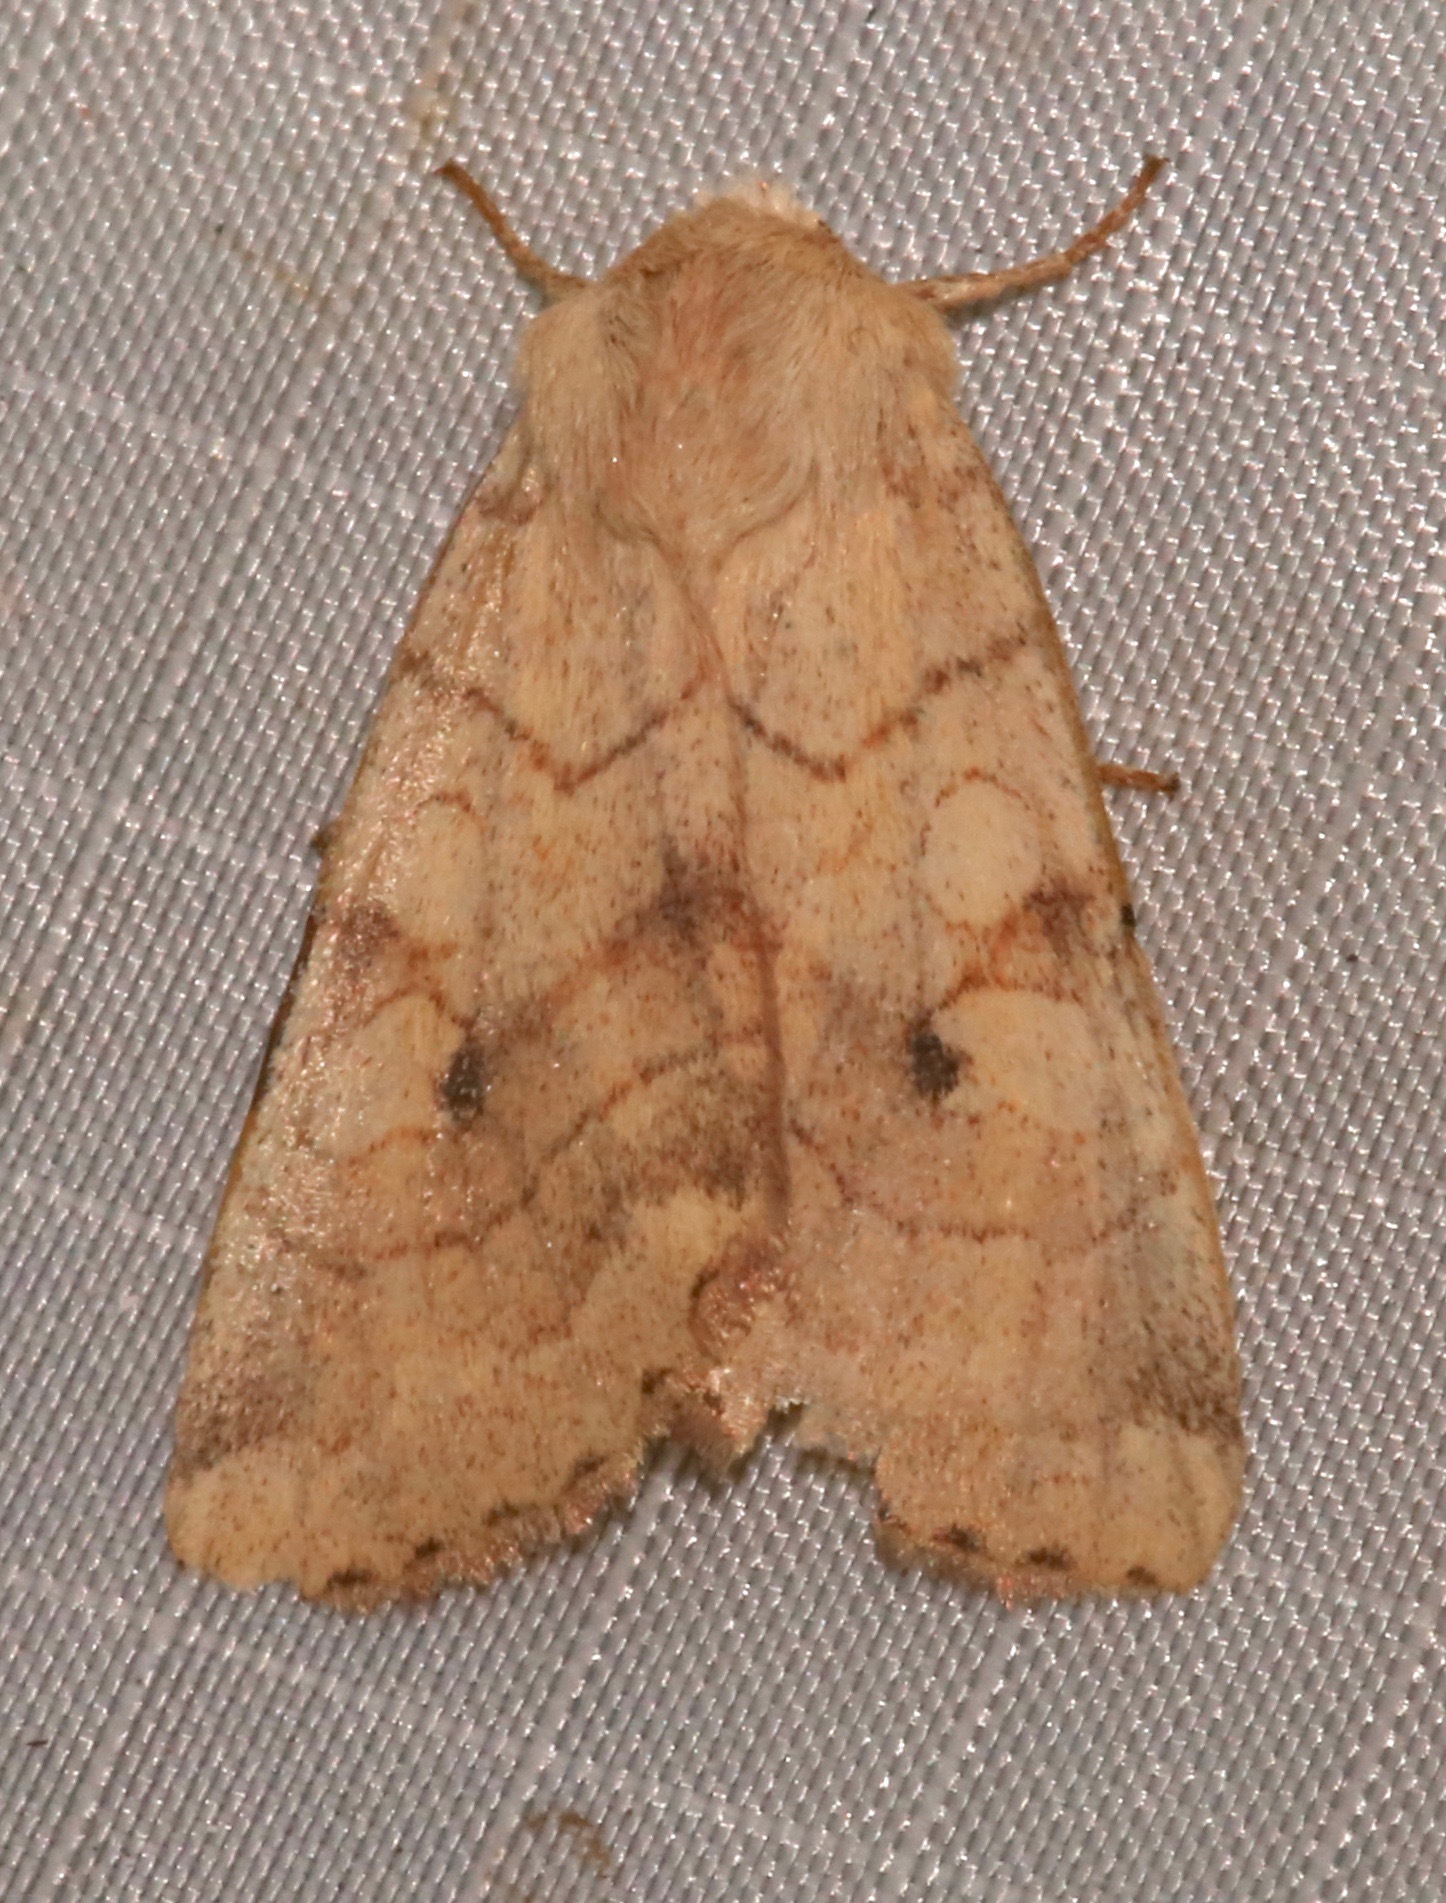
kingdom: Animalia
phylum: Arthropoda
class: Insecta
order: Lepidoptera
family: Noctuidae
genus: Enargia
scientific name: Enargia infumata
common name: Smoked sallow
